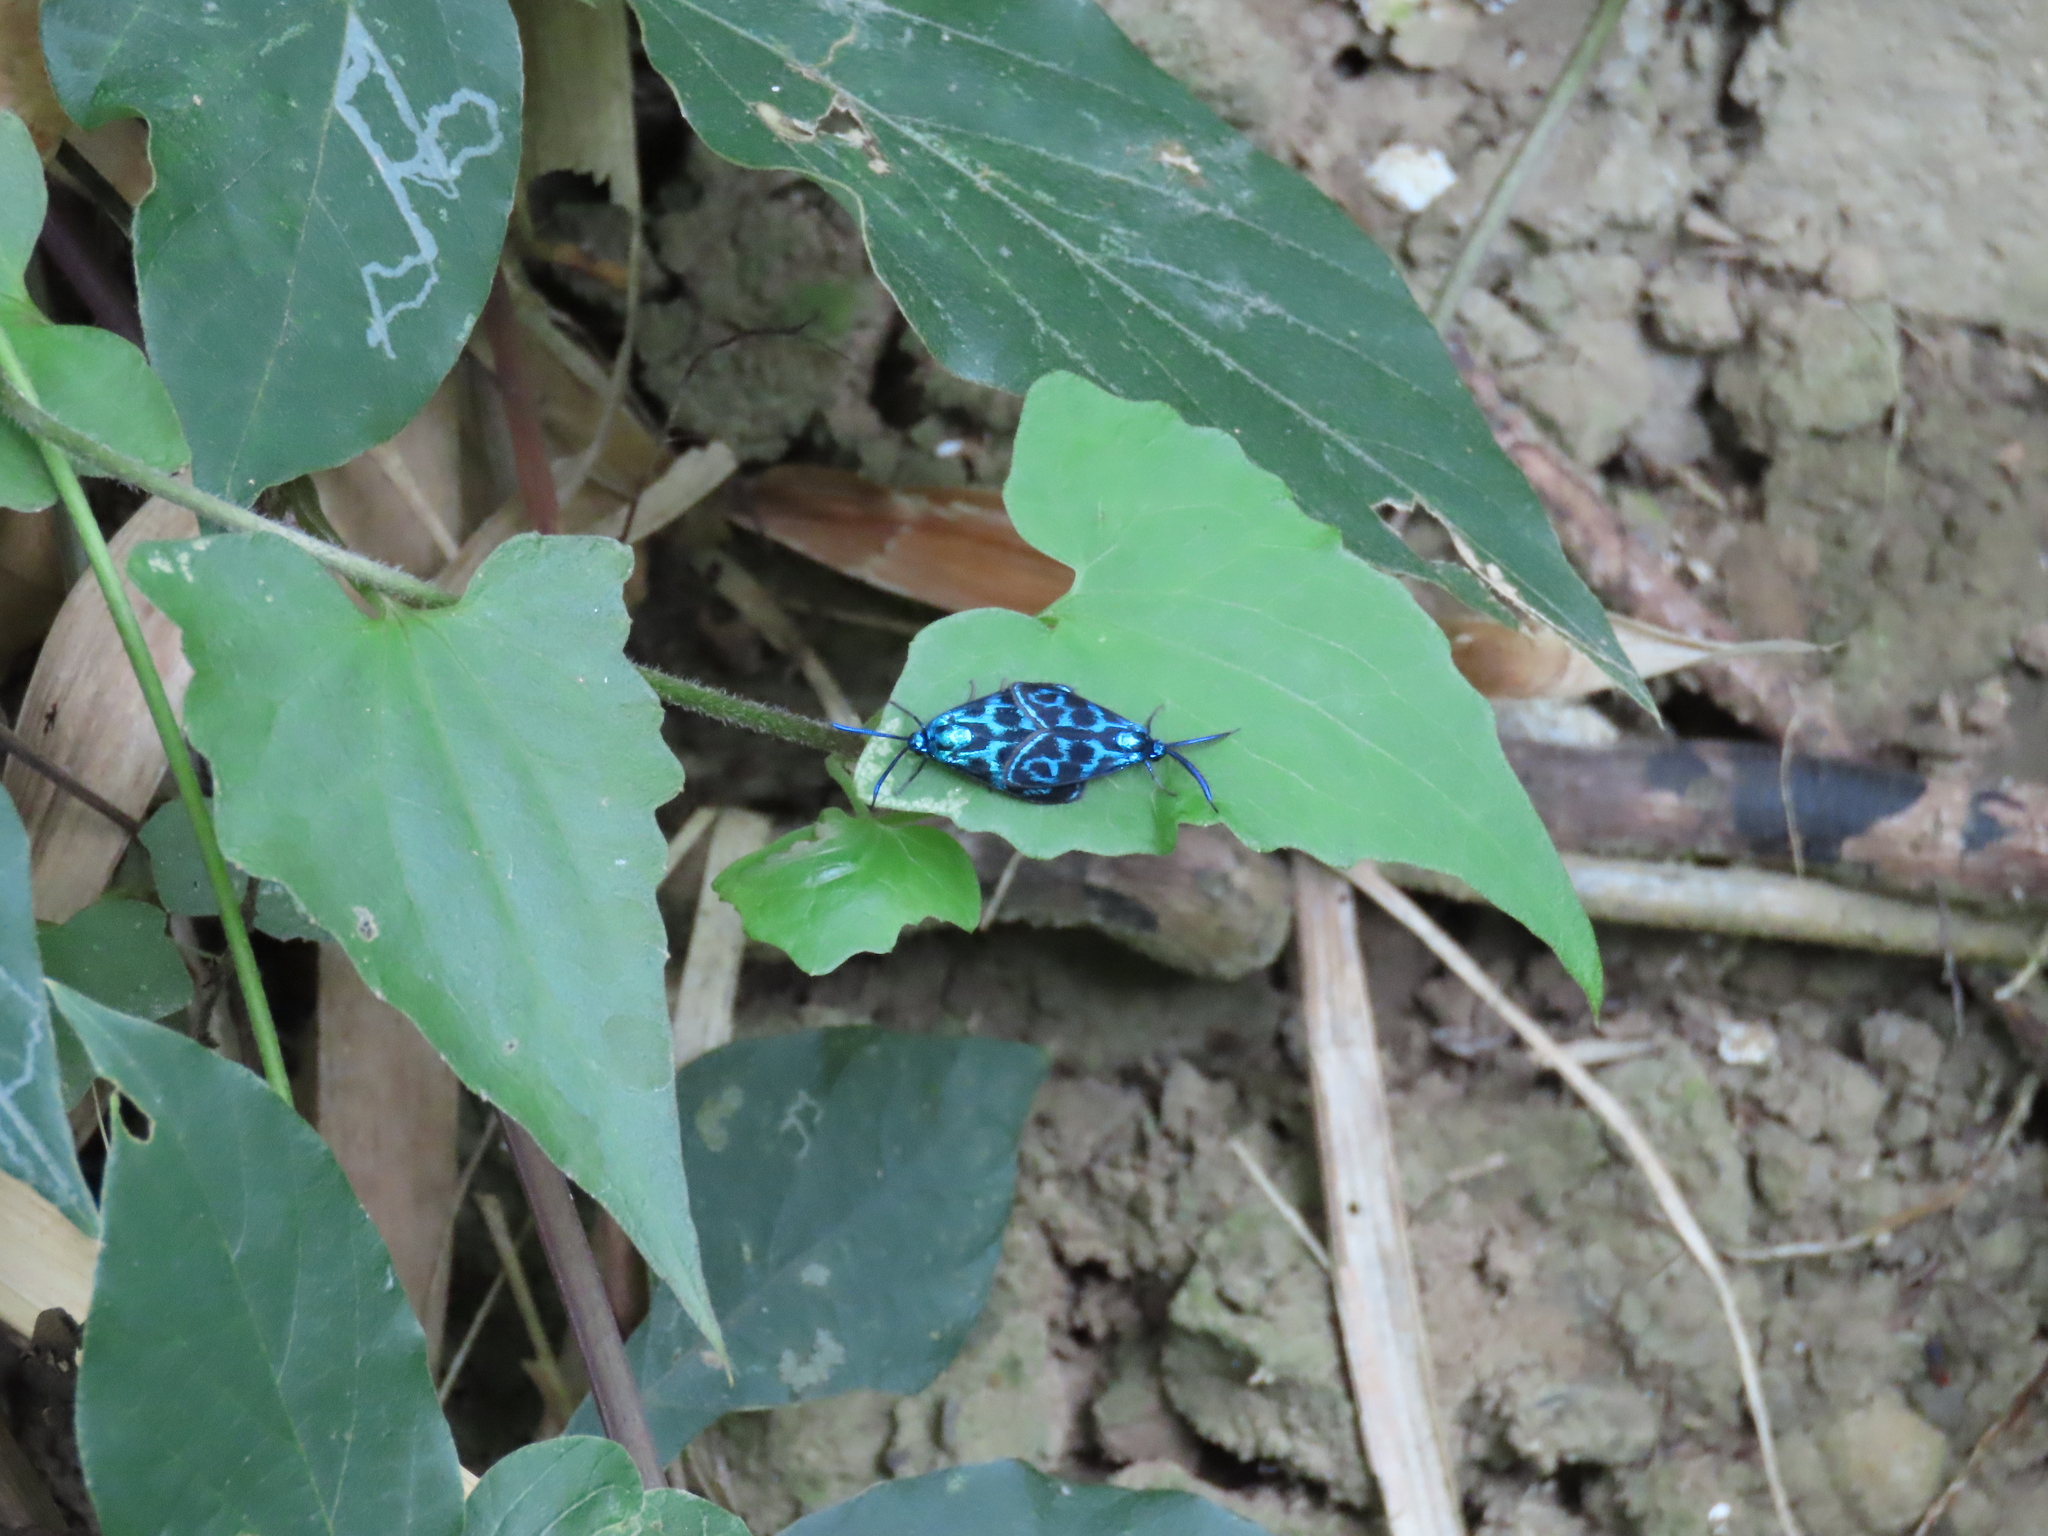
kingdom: Animalia
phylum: Arthropoda
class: Insecta
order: Lepidoptera
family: Zygaenidae
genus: Clelea
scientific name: Clelea nigroviridis
